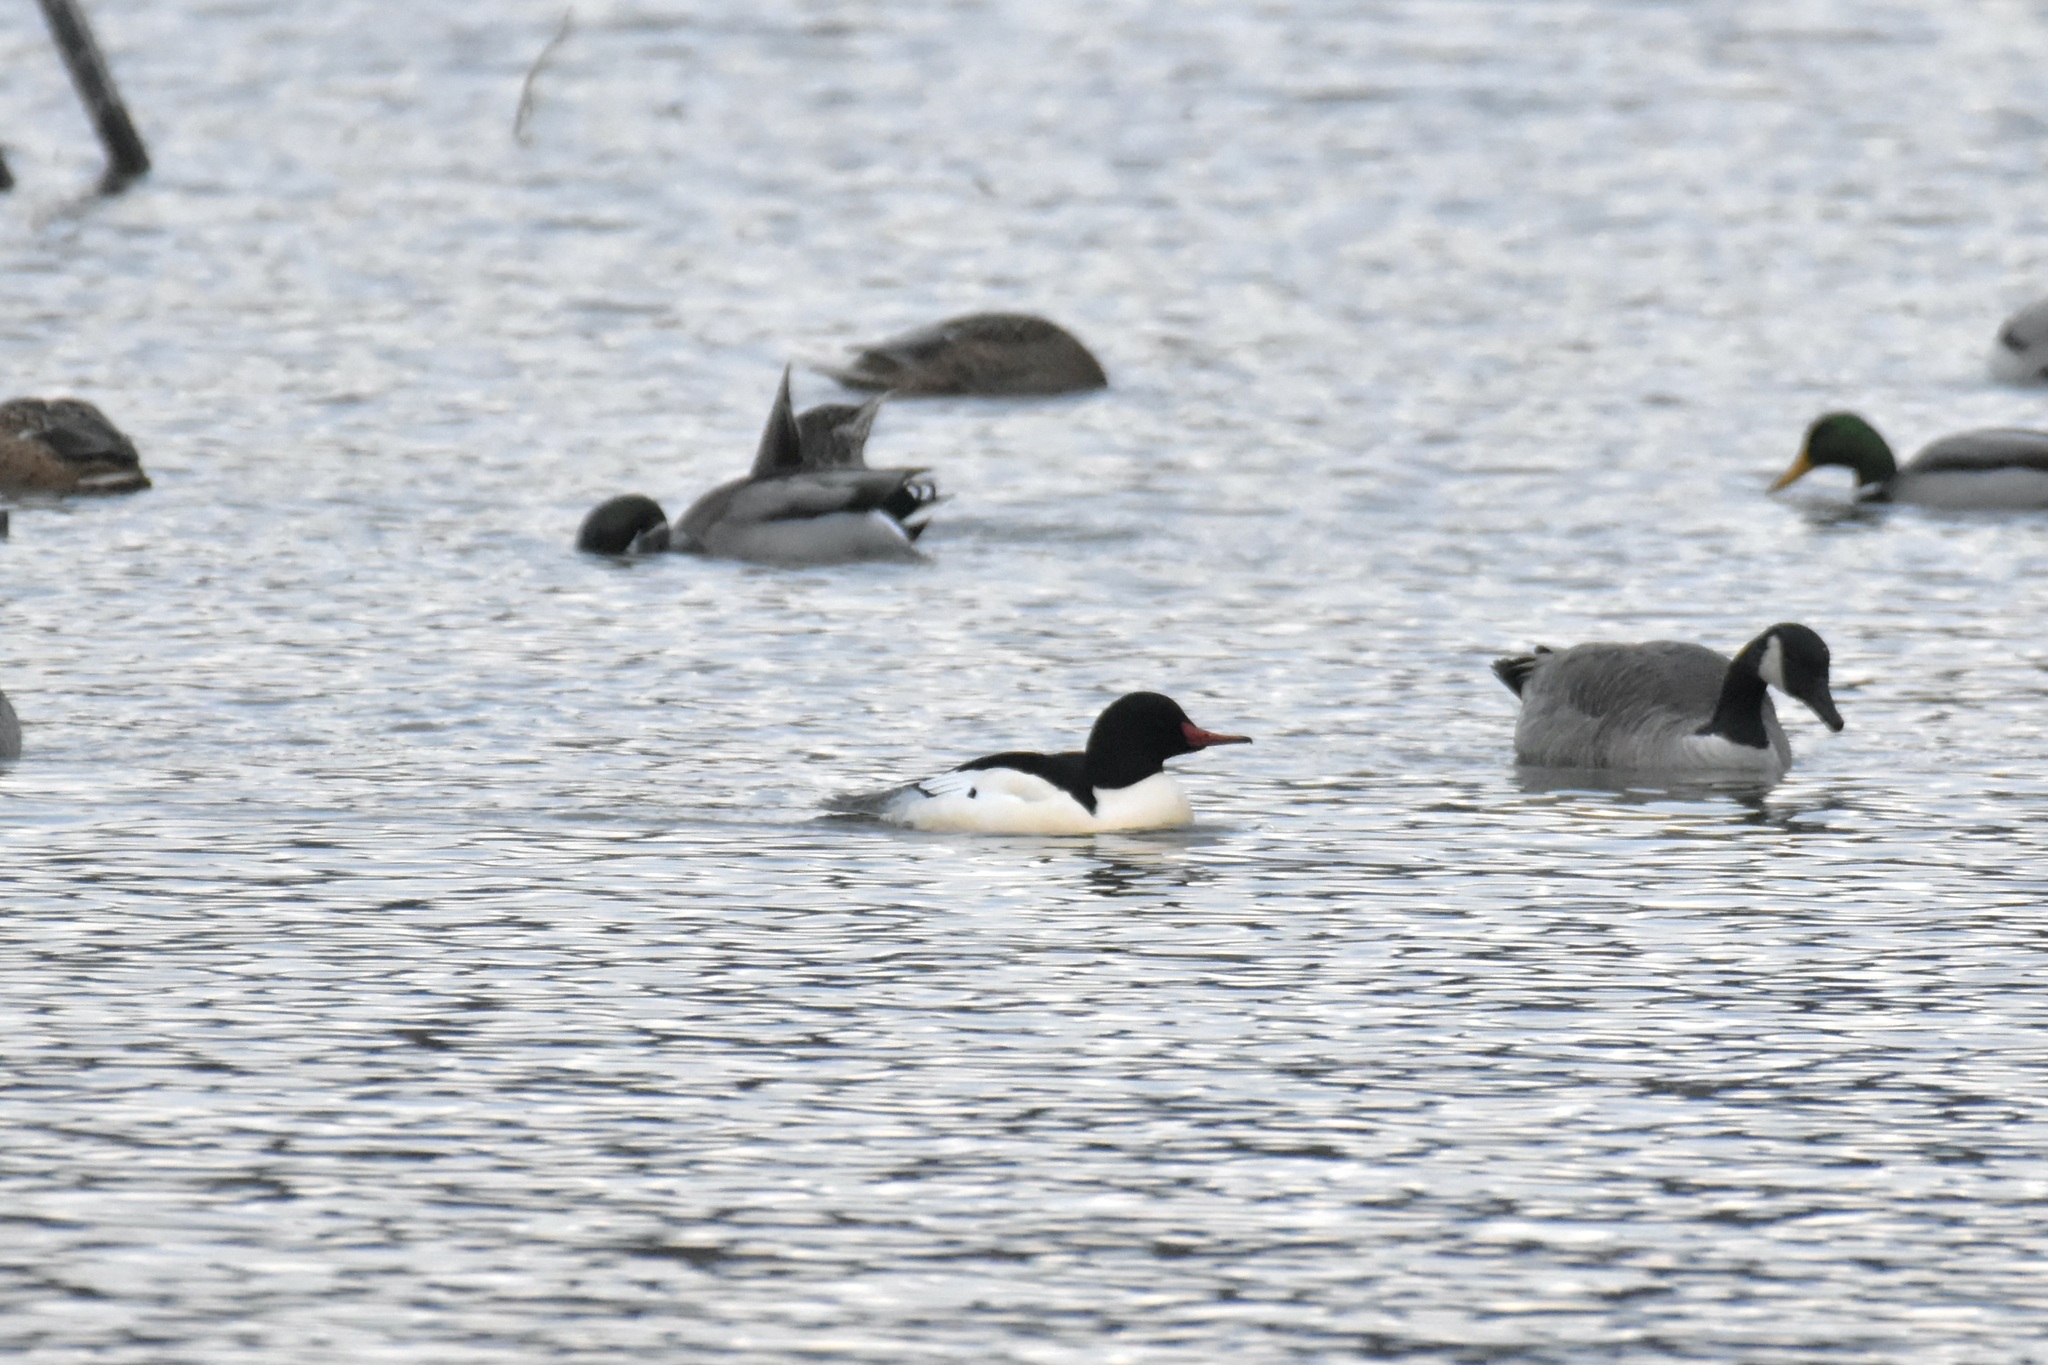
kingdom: Animalia
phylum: Chordata
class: Aves
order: Anseriformes
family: Anatidae
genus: Mergus
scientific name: Mergus merganser
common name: Common merganser
